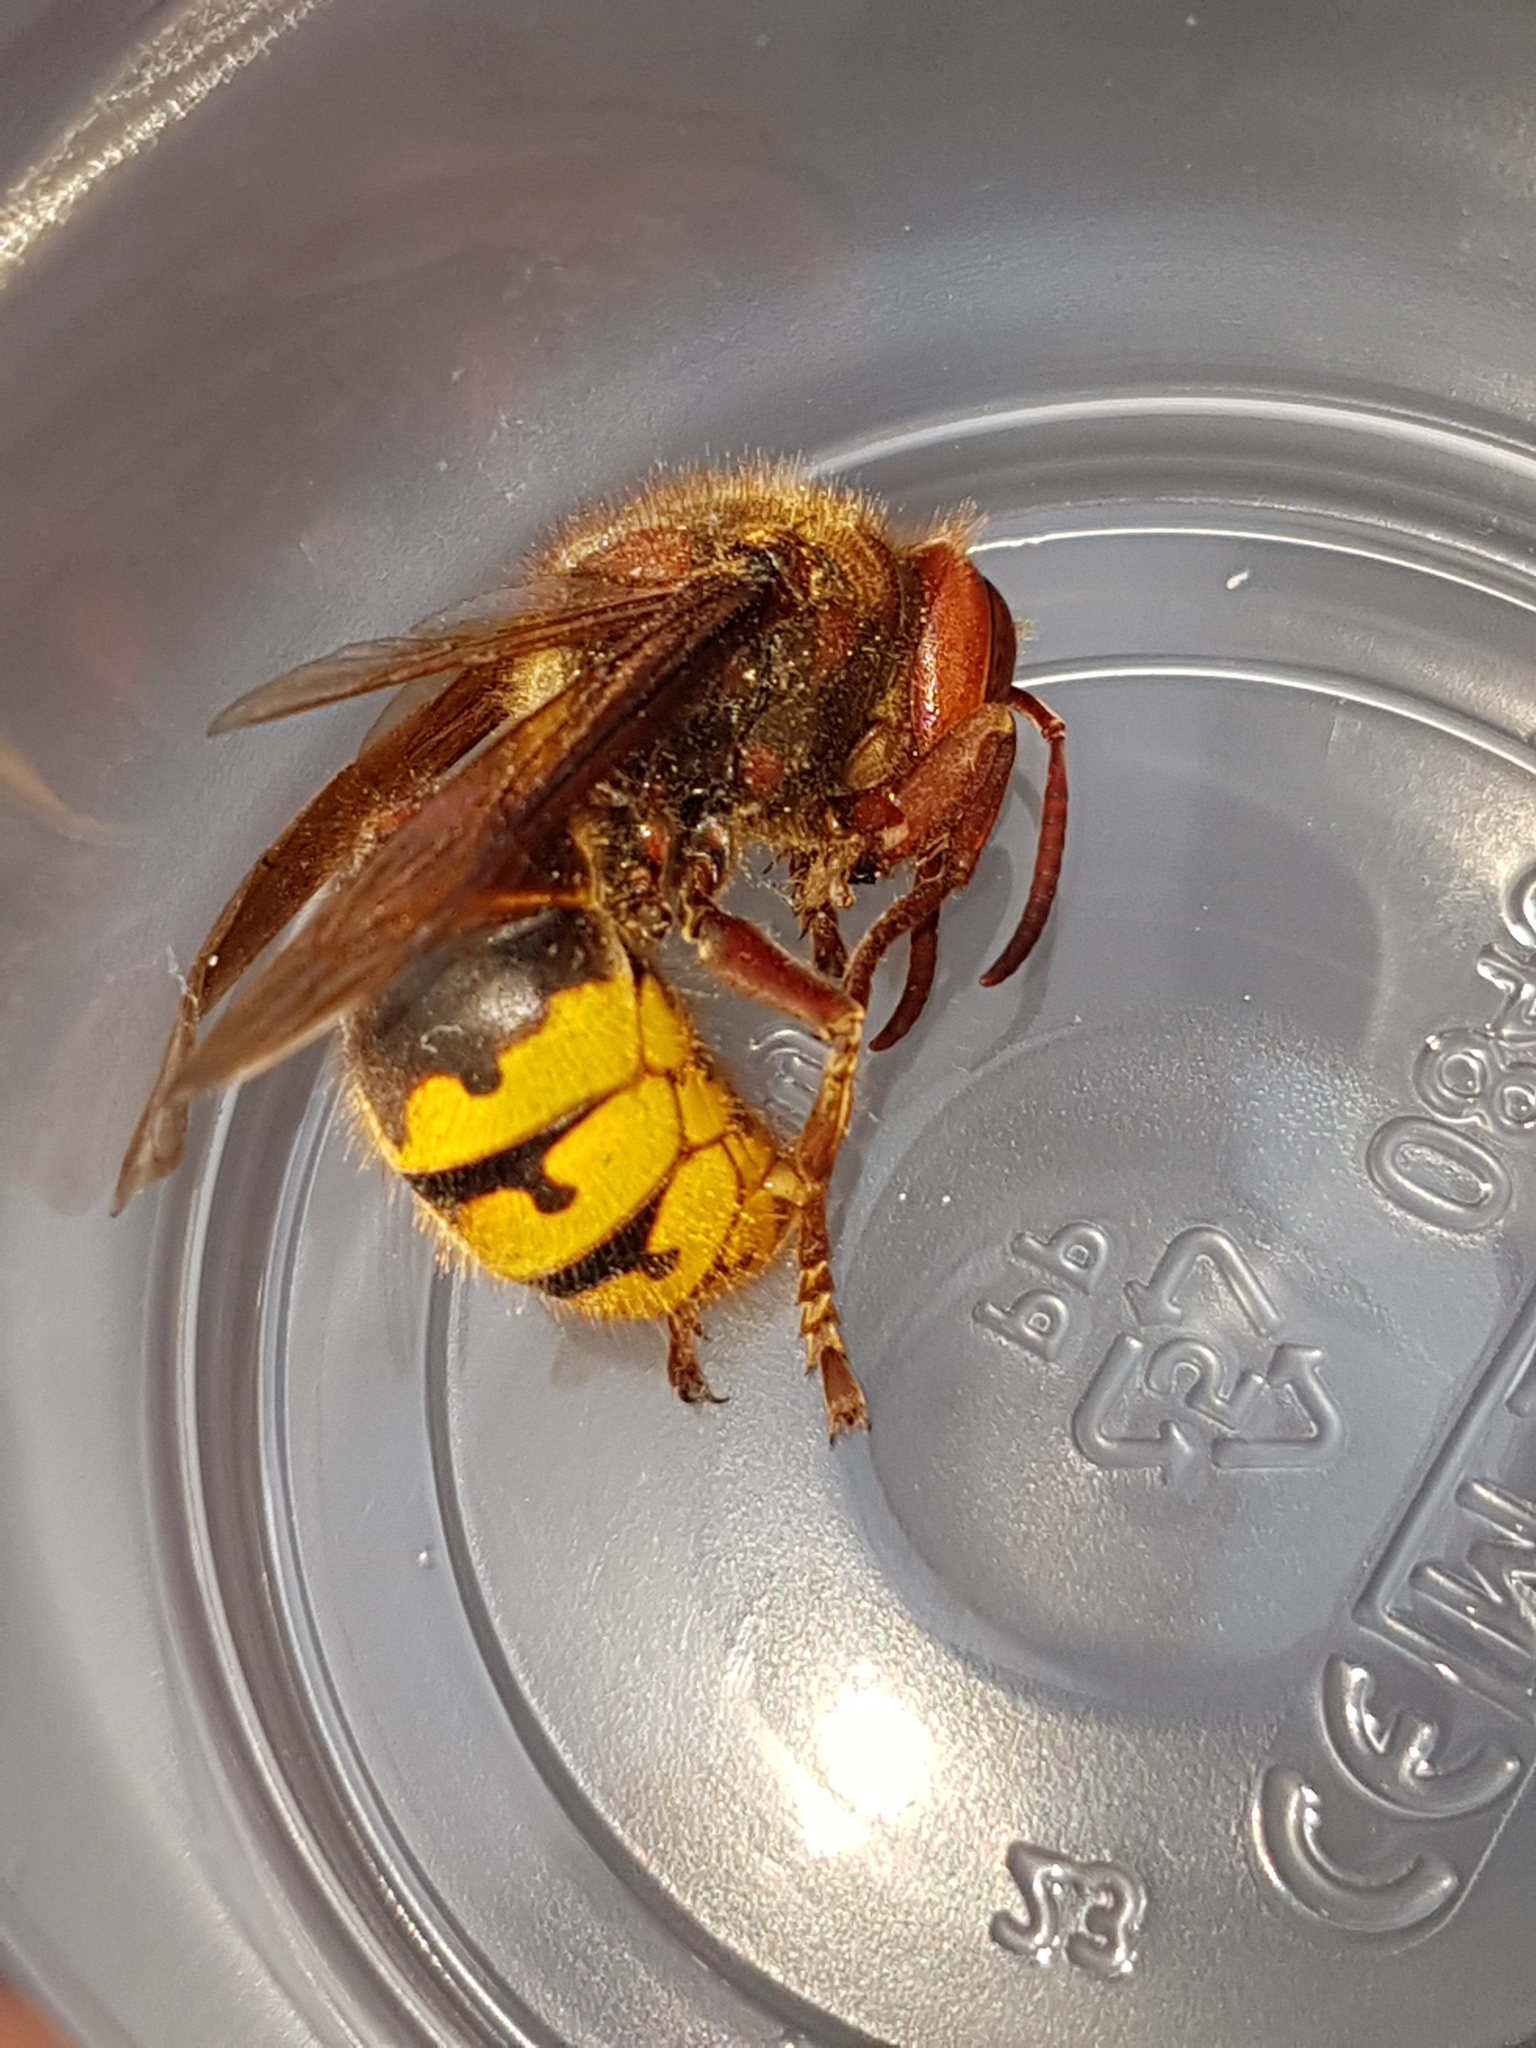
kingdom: Animalia
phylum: Arthropoda
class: Insecta
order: Hymenoptera
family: Vespidae
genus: Vespa
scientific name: Vespa crabro
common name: Hornet
